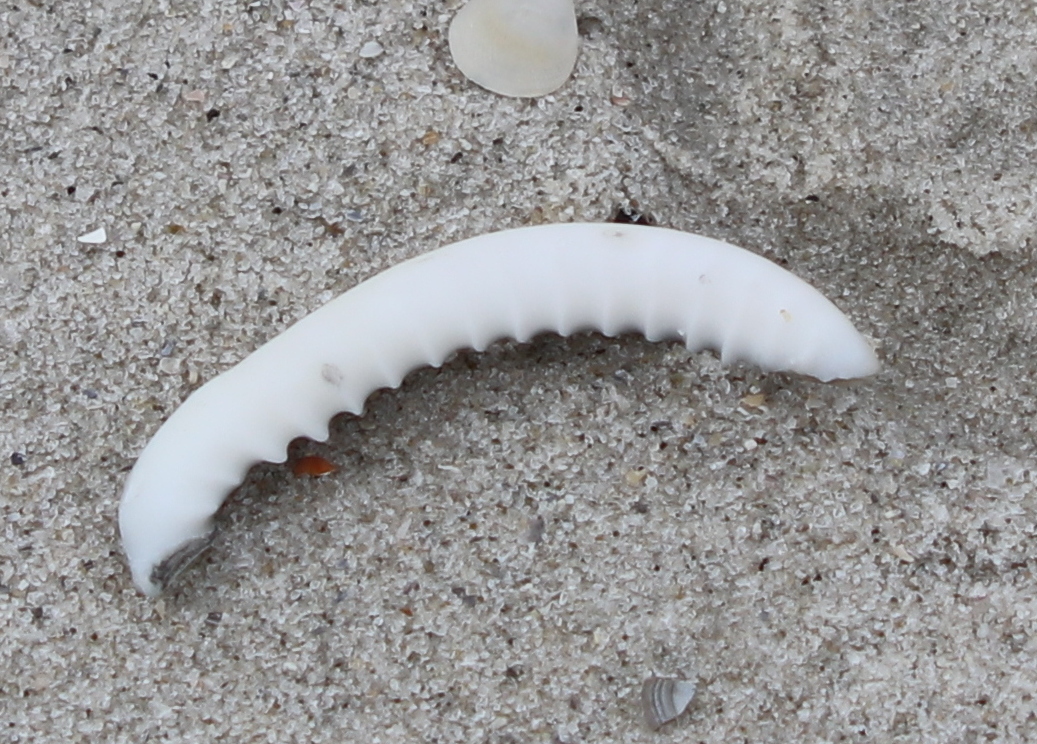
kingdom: Animalia
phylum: Mollusca
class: Gastropoda
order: Littorinimorpha
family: Cassidae
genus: Semicassis
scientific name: Semicassis granulata
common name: Scotch bonnet
